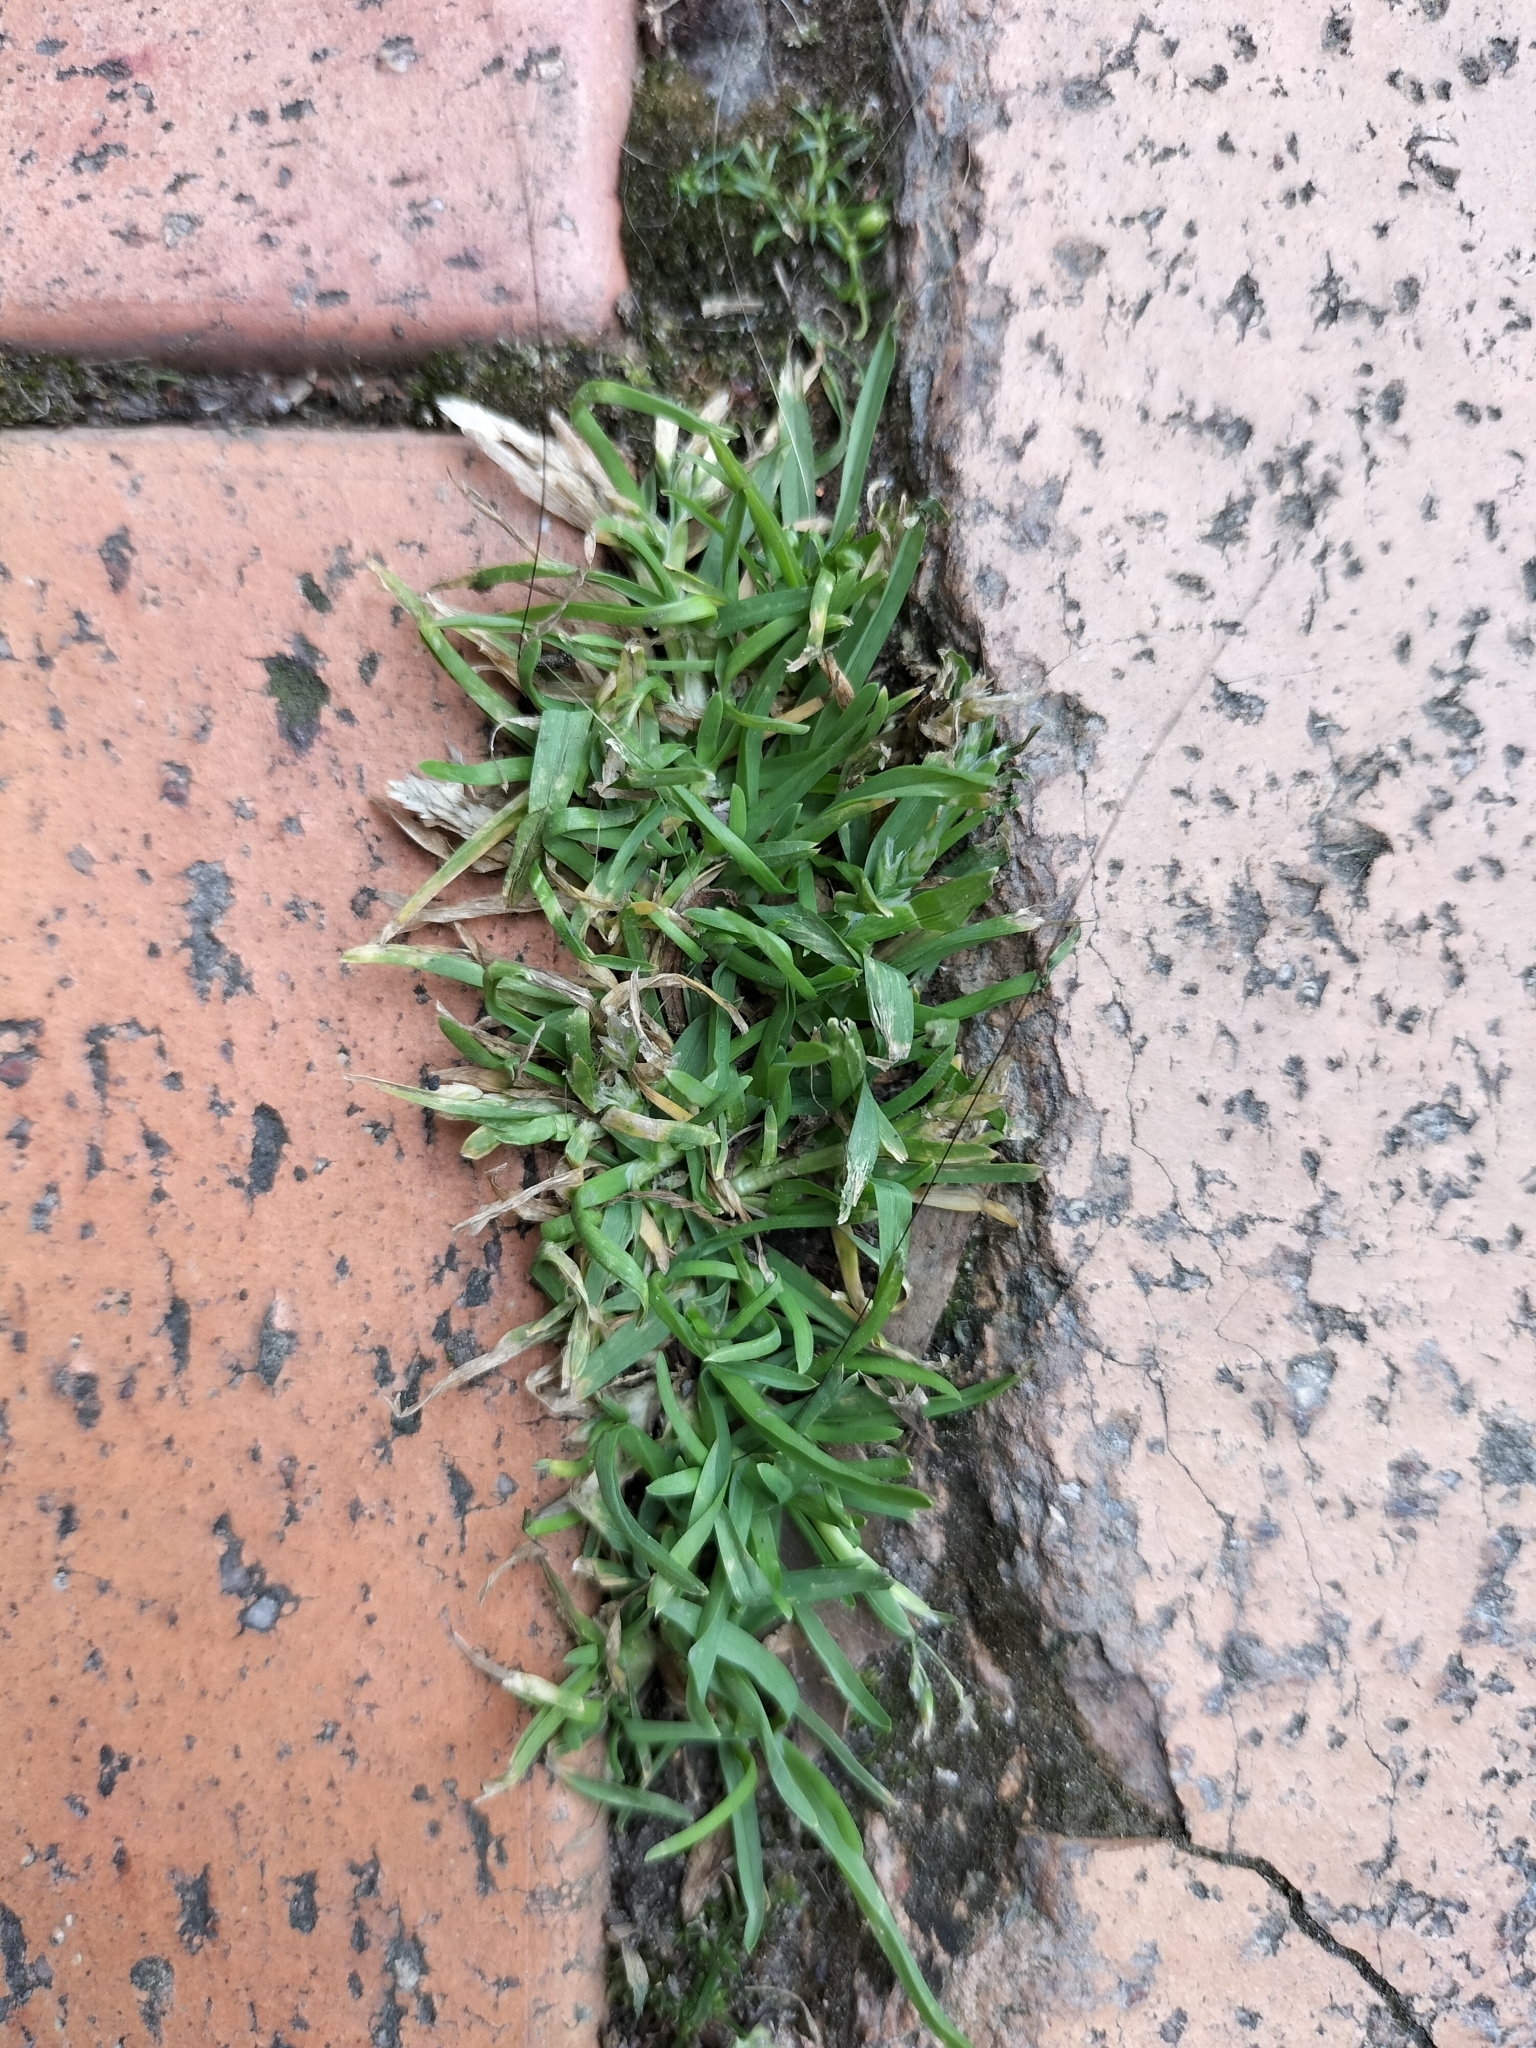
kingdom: Plantae
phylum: Tracheophyta
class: Liliopsida
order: Poales
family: Poaceae
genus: Poa
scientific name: Poa annua
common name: Annual bluegrass
